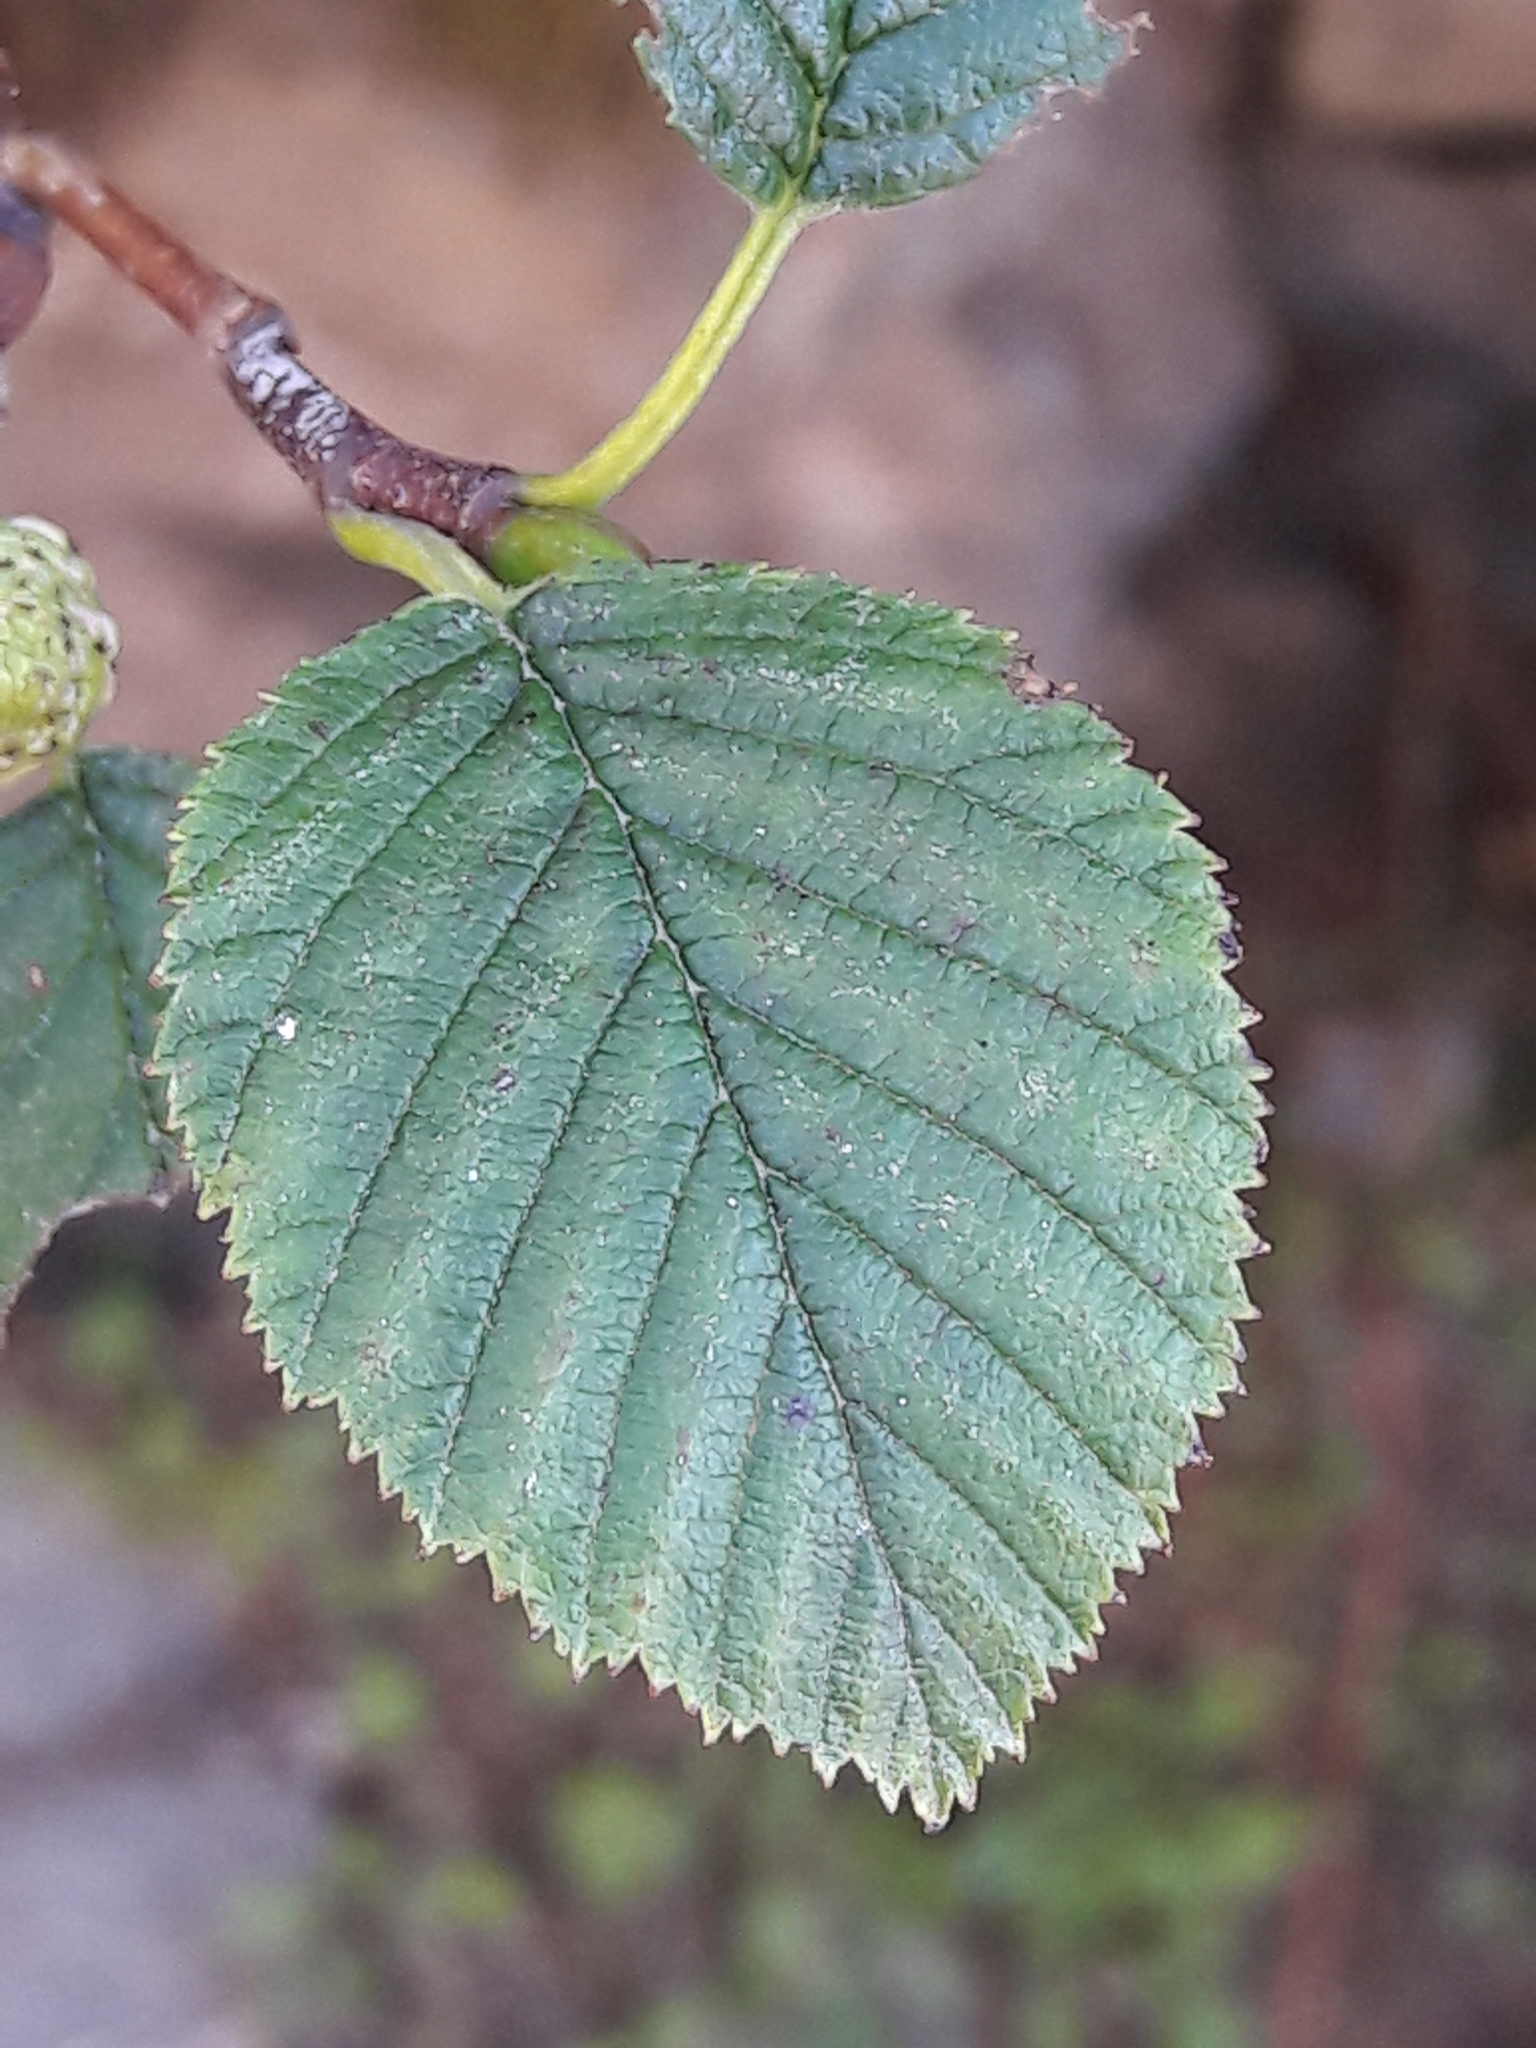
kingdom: Plantae
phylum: Tracheophyta
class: Magnoliopsida
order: Fagales
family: Betulaceae
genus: Alnus
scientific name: Alnus alnobetula
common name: Green alder
